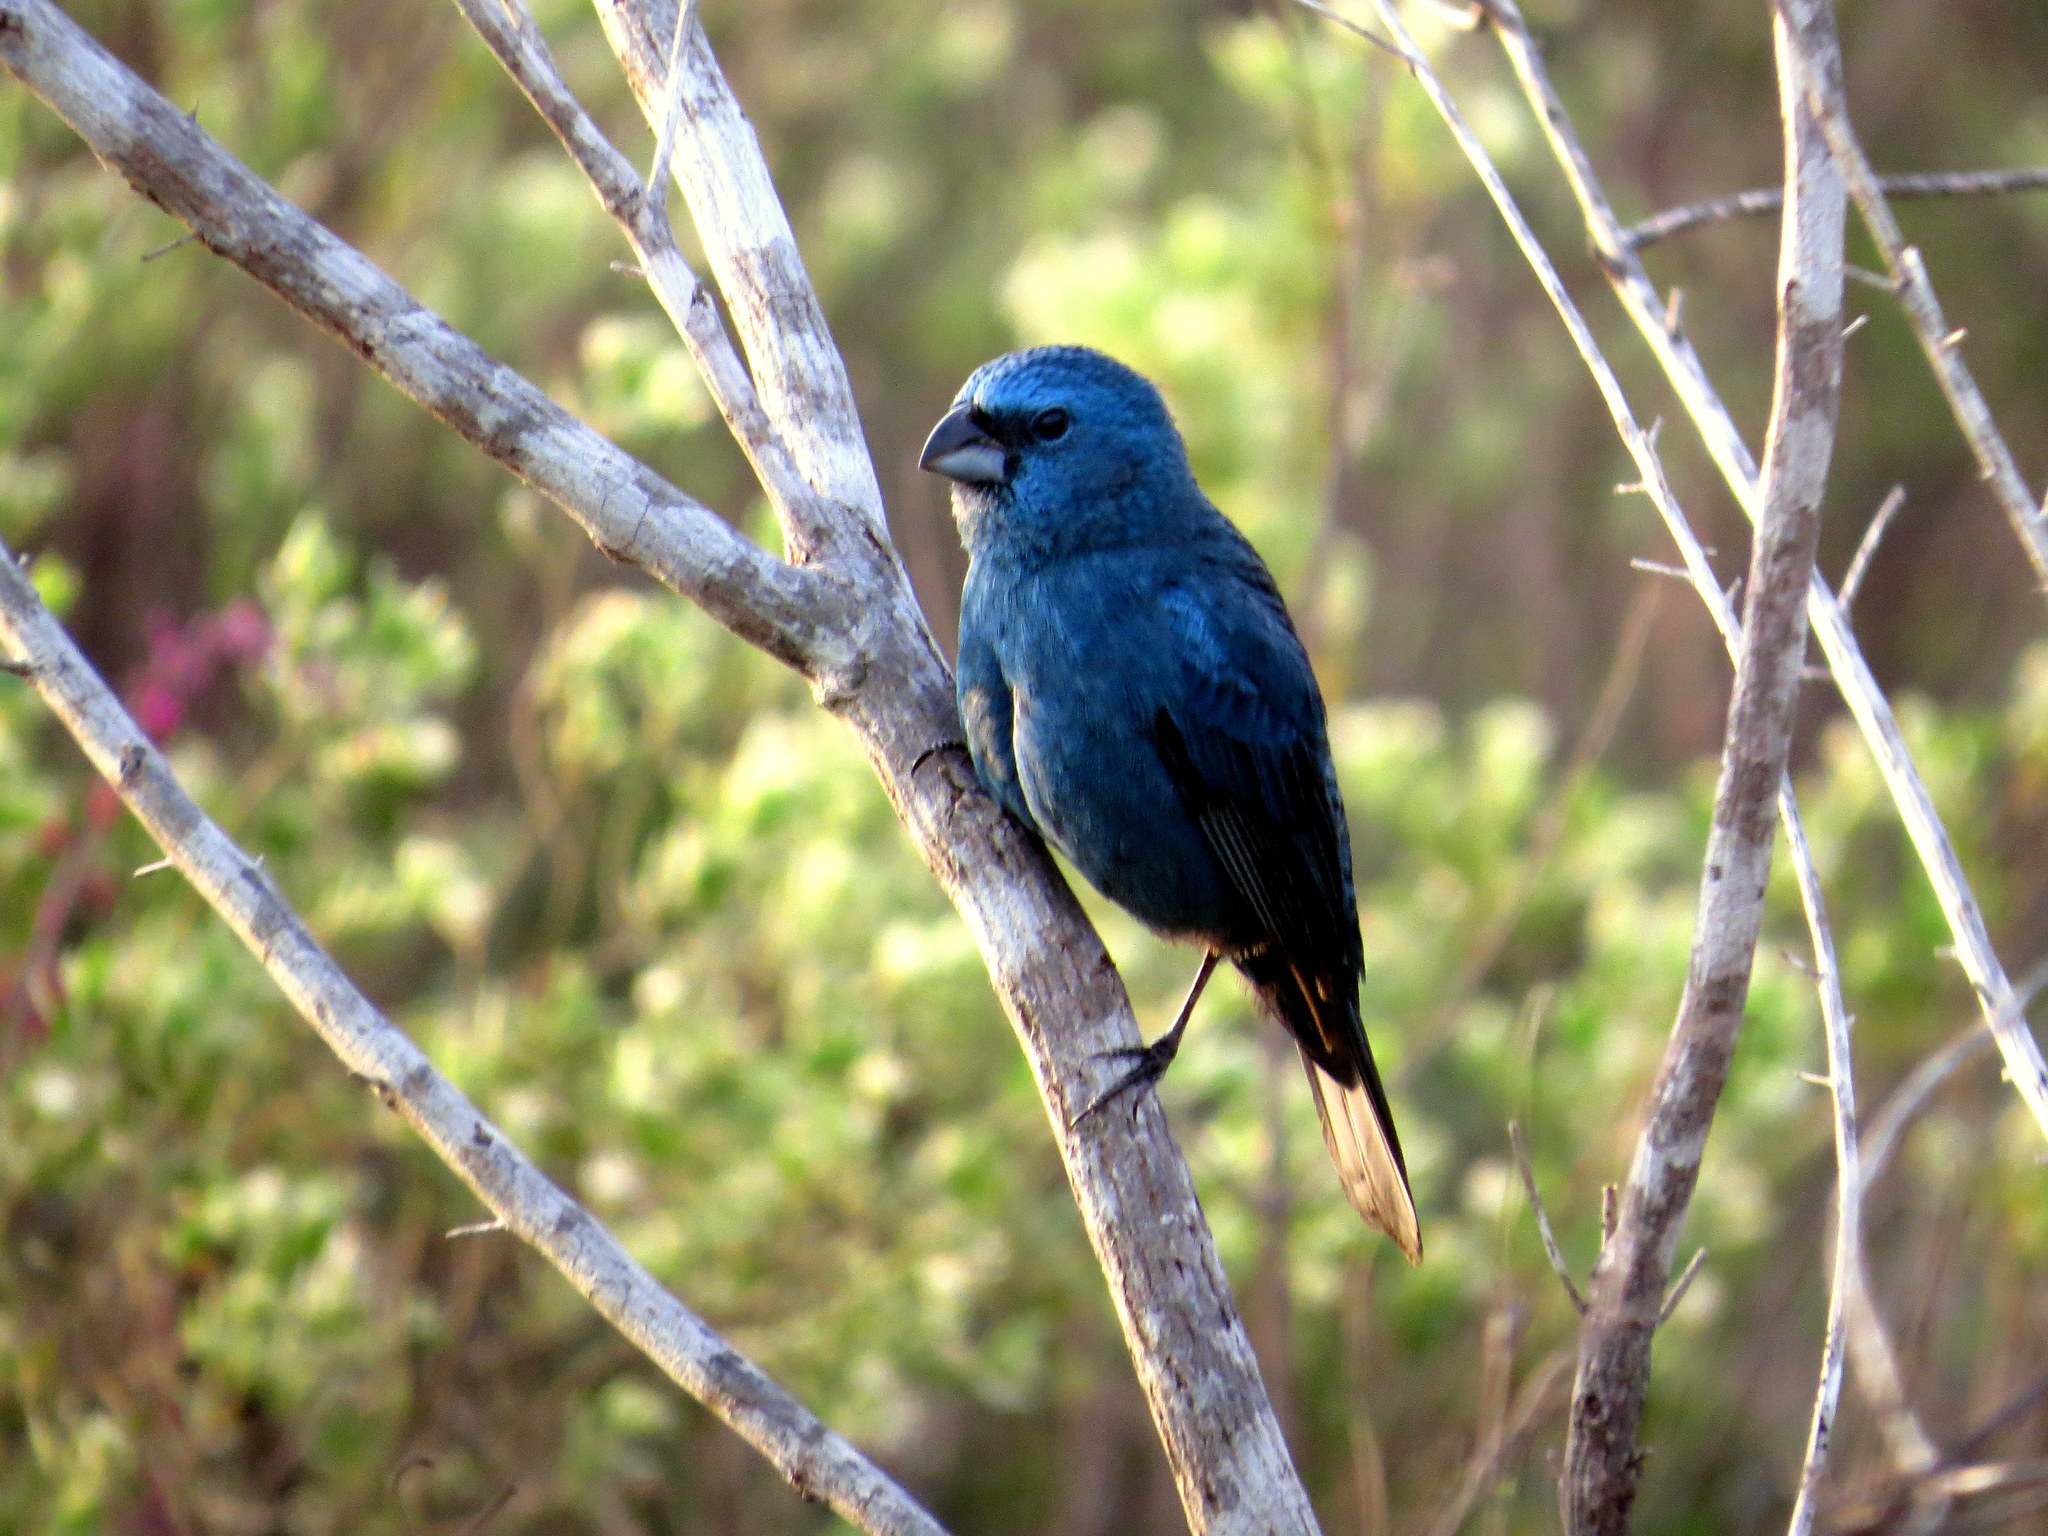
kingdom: Animalia
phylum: Chordata
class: Aves
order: Passeriformes
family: Cardinalidae
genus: Cyanoloxia
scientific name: Cyanoloxia glaucocaerulea
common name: Glaucous-blue grosbeak
